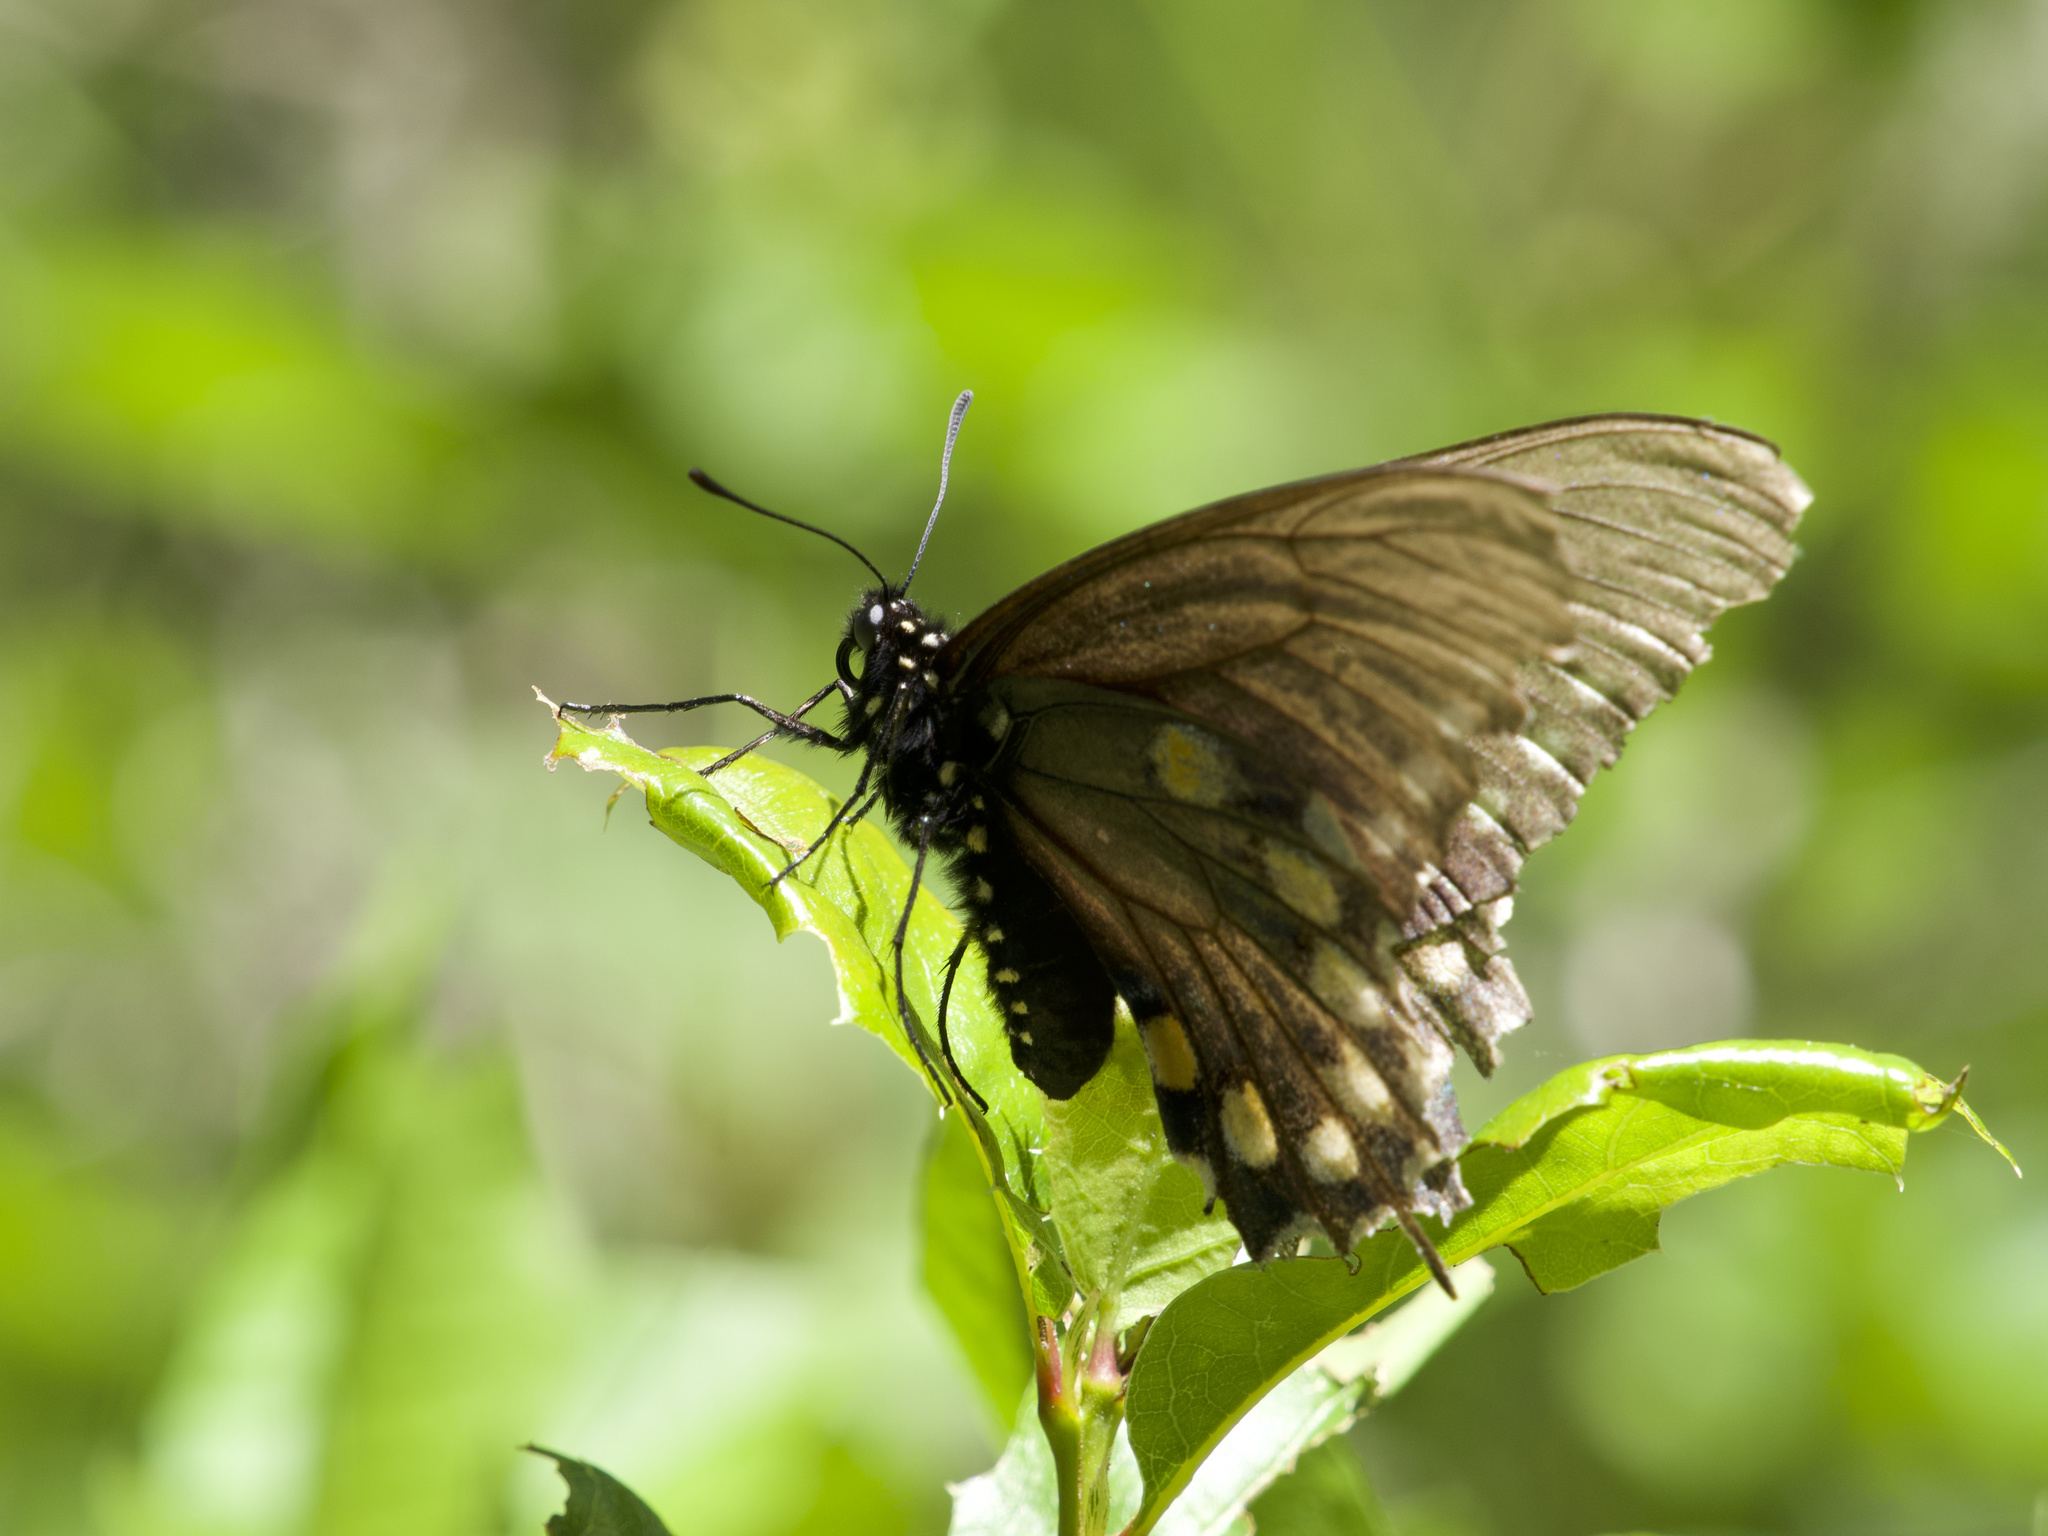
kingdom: Animalia
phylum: Arthropoda
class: Insecta
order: Lepidoptera
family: Papilionidae
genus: Battus
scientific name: Battus philenor
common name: Pipevine swallowtail
